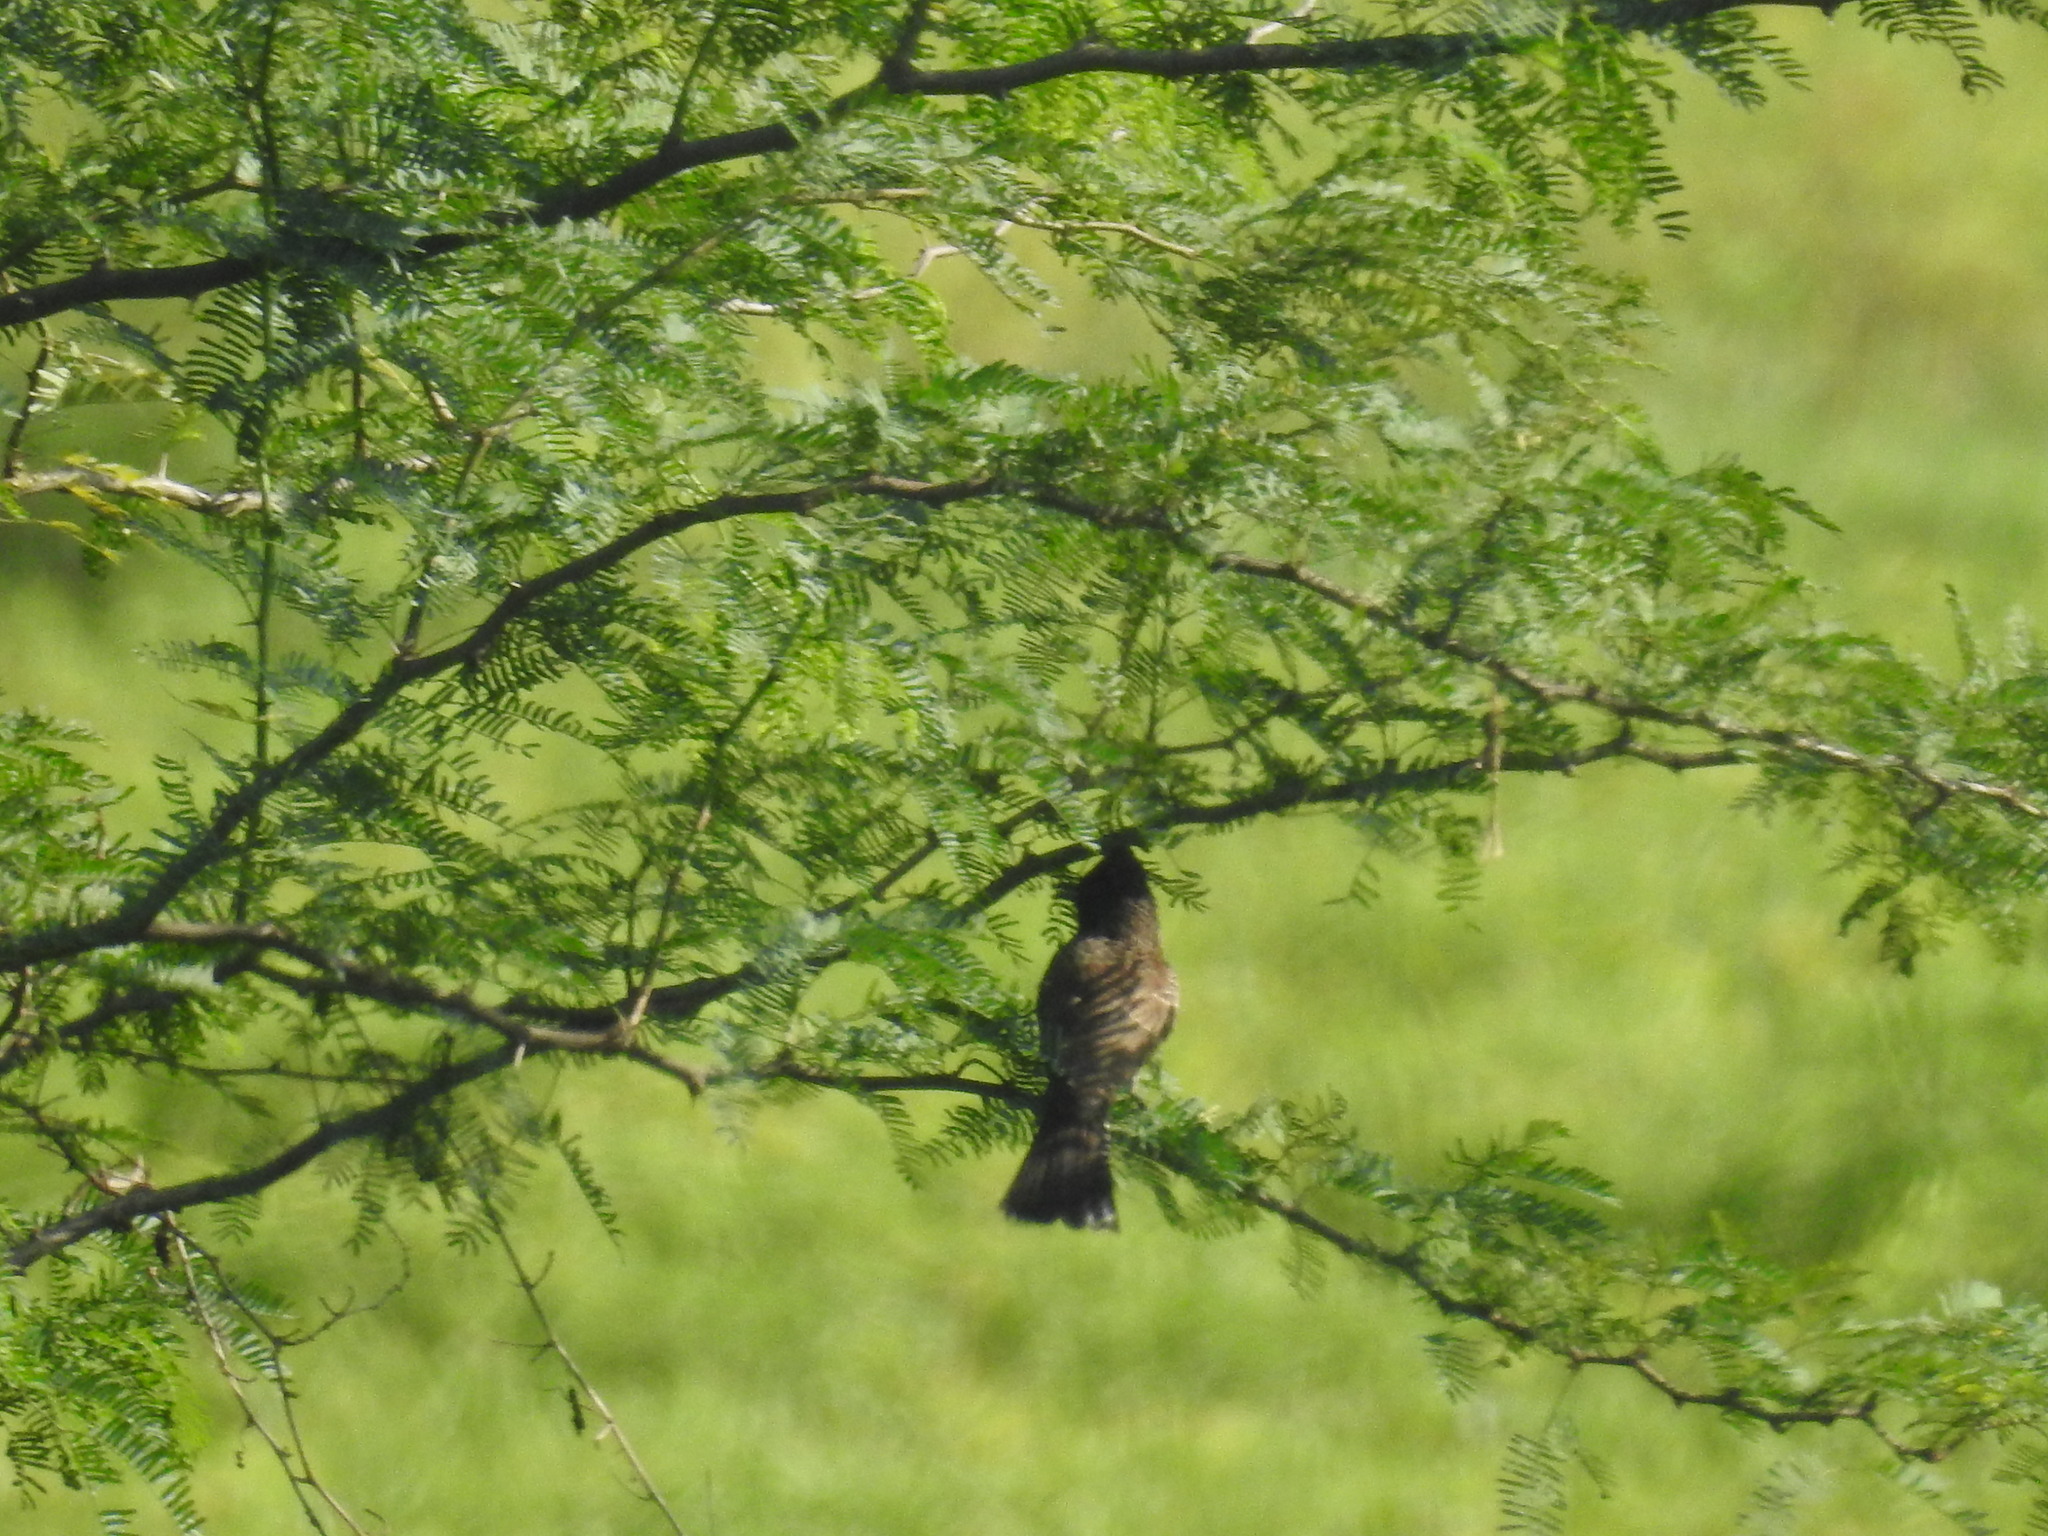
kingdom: Animalia
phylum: Chordata
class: Aves
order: Passeriformes
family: Pycnonotidae
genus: Pycnonotus
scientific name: Pycnonotus cafer
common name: Red-vented bulbul
